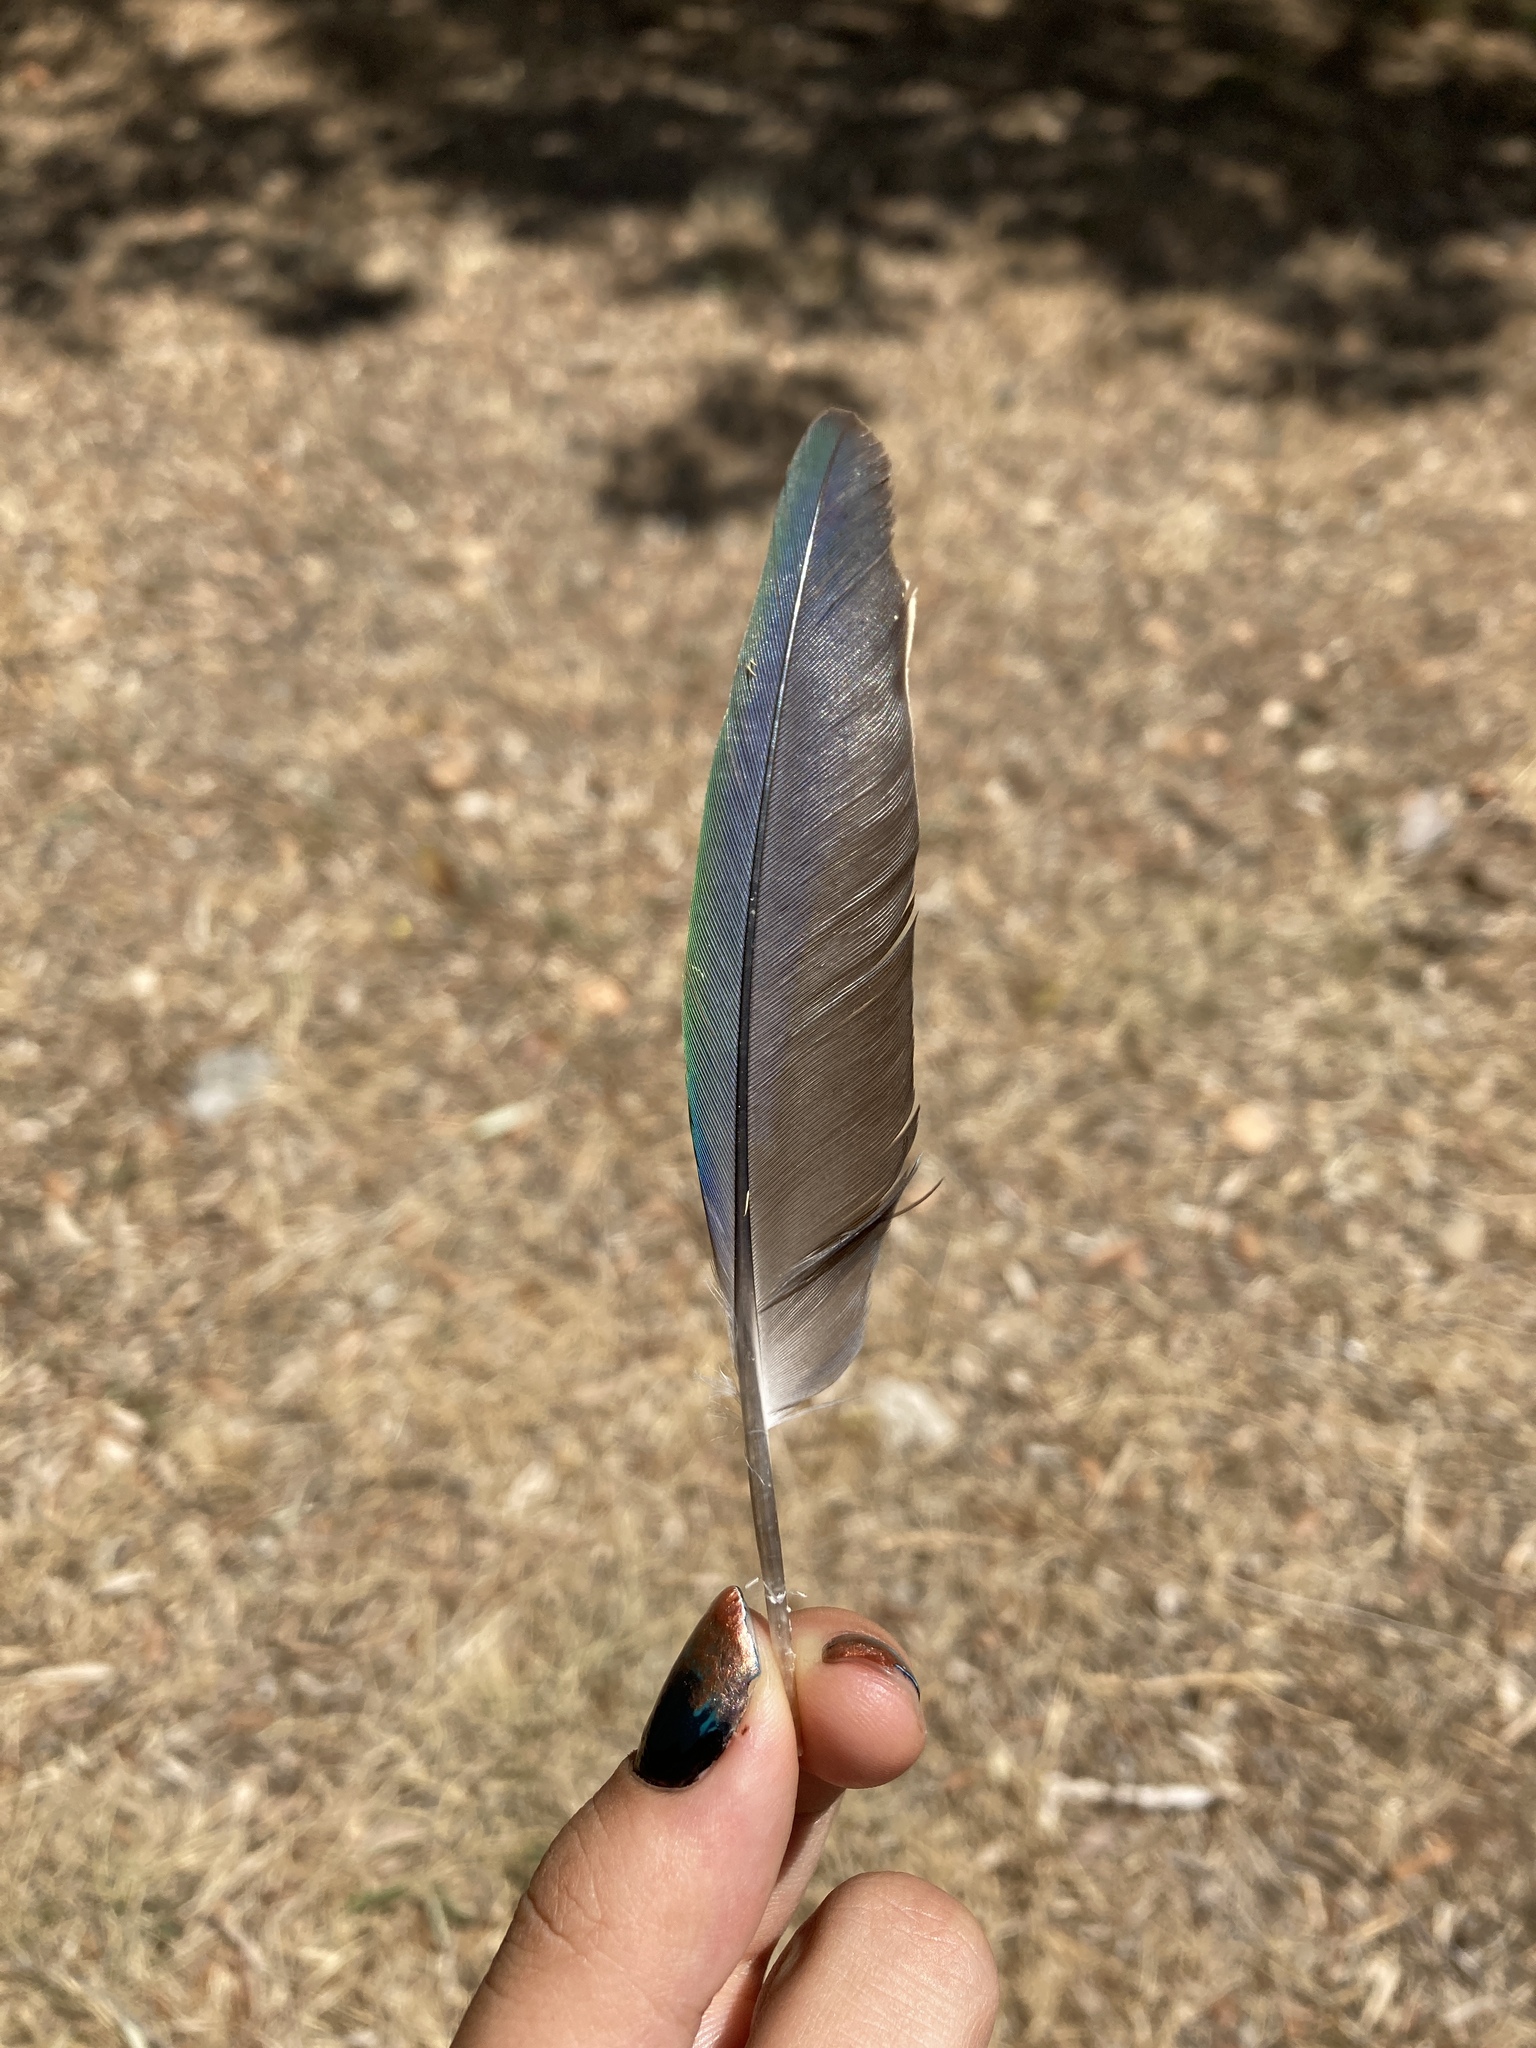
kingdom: Animalia
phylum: Chordata
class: Aves
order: Psittaciformes
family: Psittacidae
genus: Myiopsitta
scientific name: Myiopsitta monachus
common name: Monk parakeet
